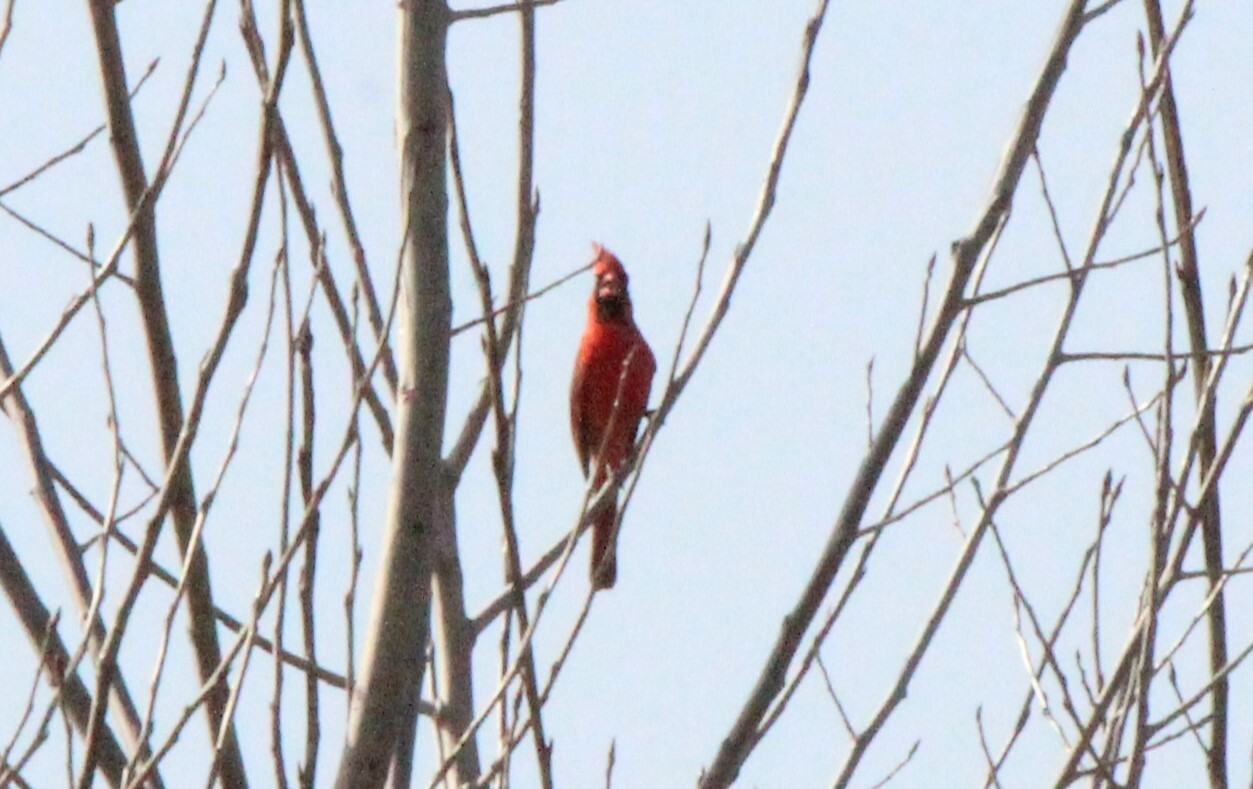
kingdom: Animalia
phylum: Chordata
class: Aves
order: Passeriformes
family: Cardinalidae
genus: Cardinalis
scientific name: Cardinalis cardinalis
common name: Northern cardinal
